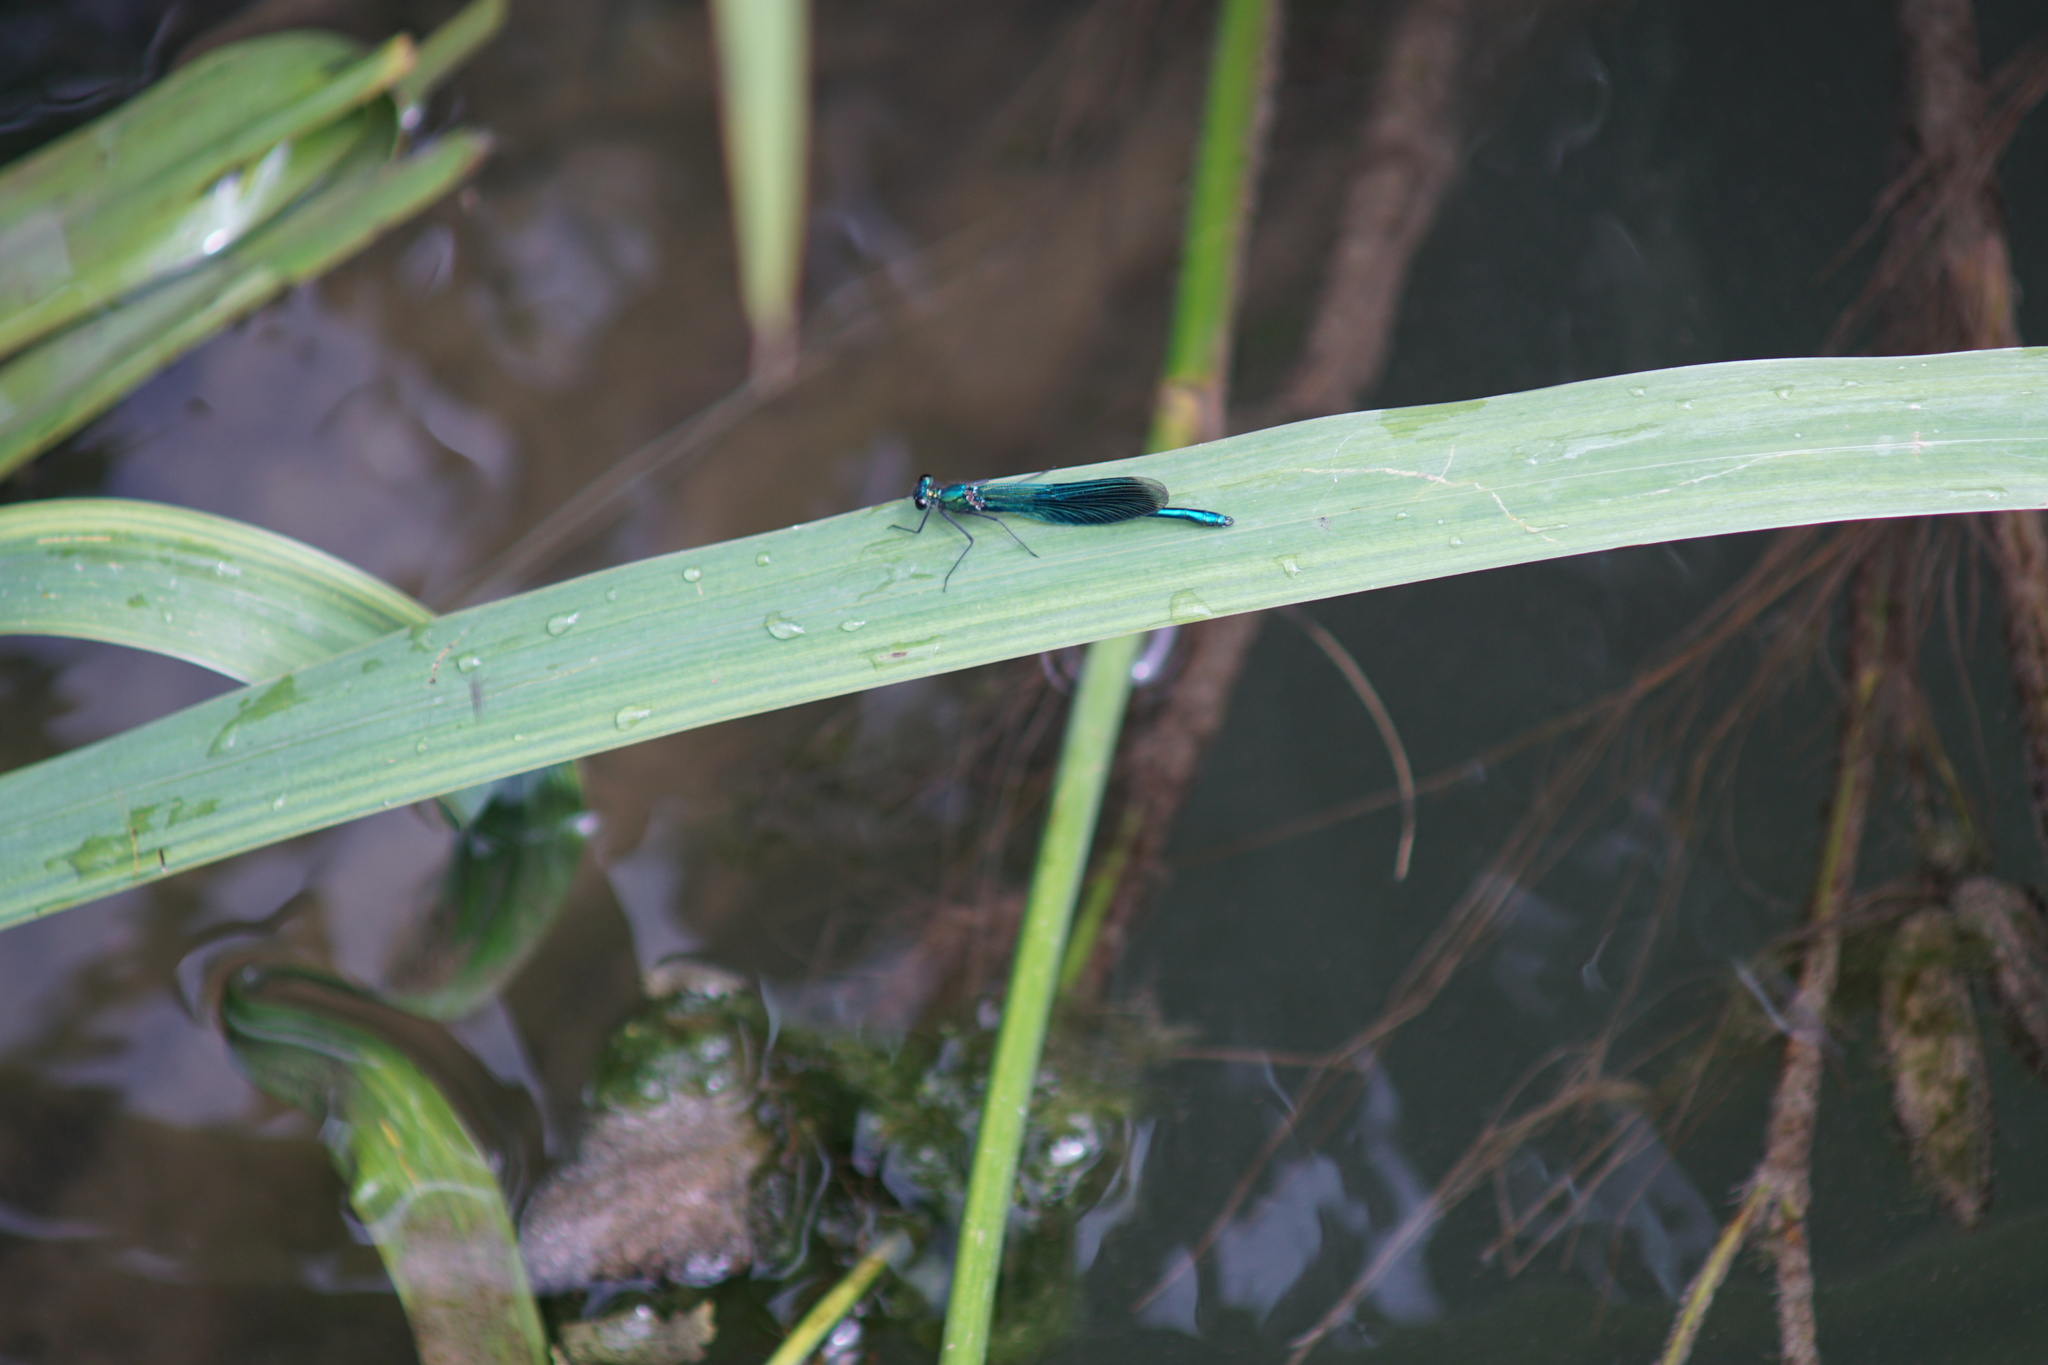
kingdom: Animalia
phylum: Arthropoda
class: Insecta
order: Odonata
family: Calopterygidae
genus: Calopteryx
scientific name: Calopteryx splendens
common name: Banded demoiselle
